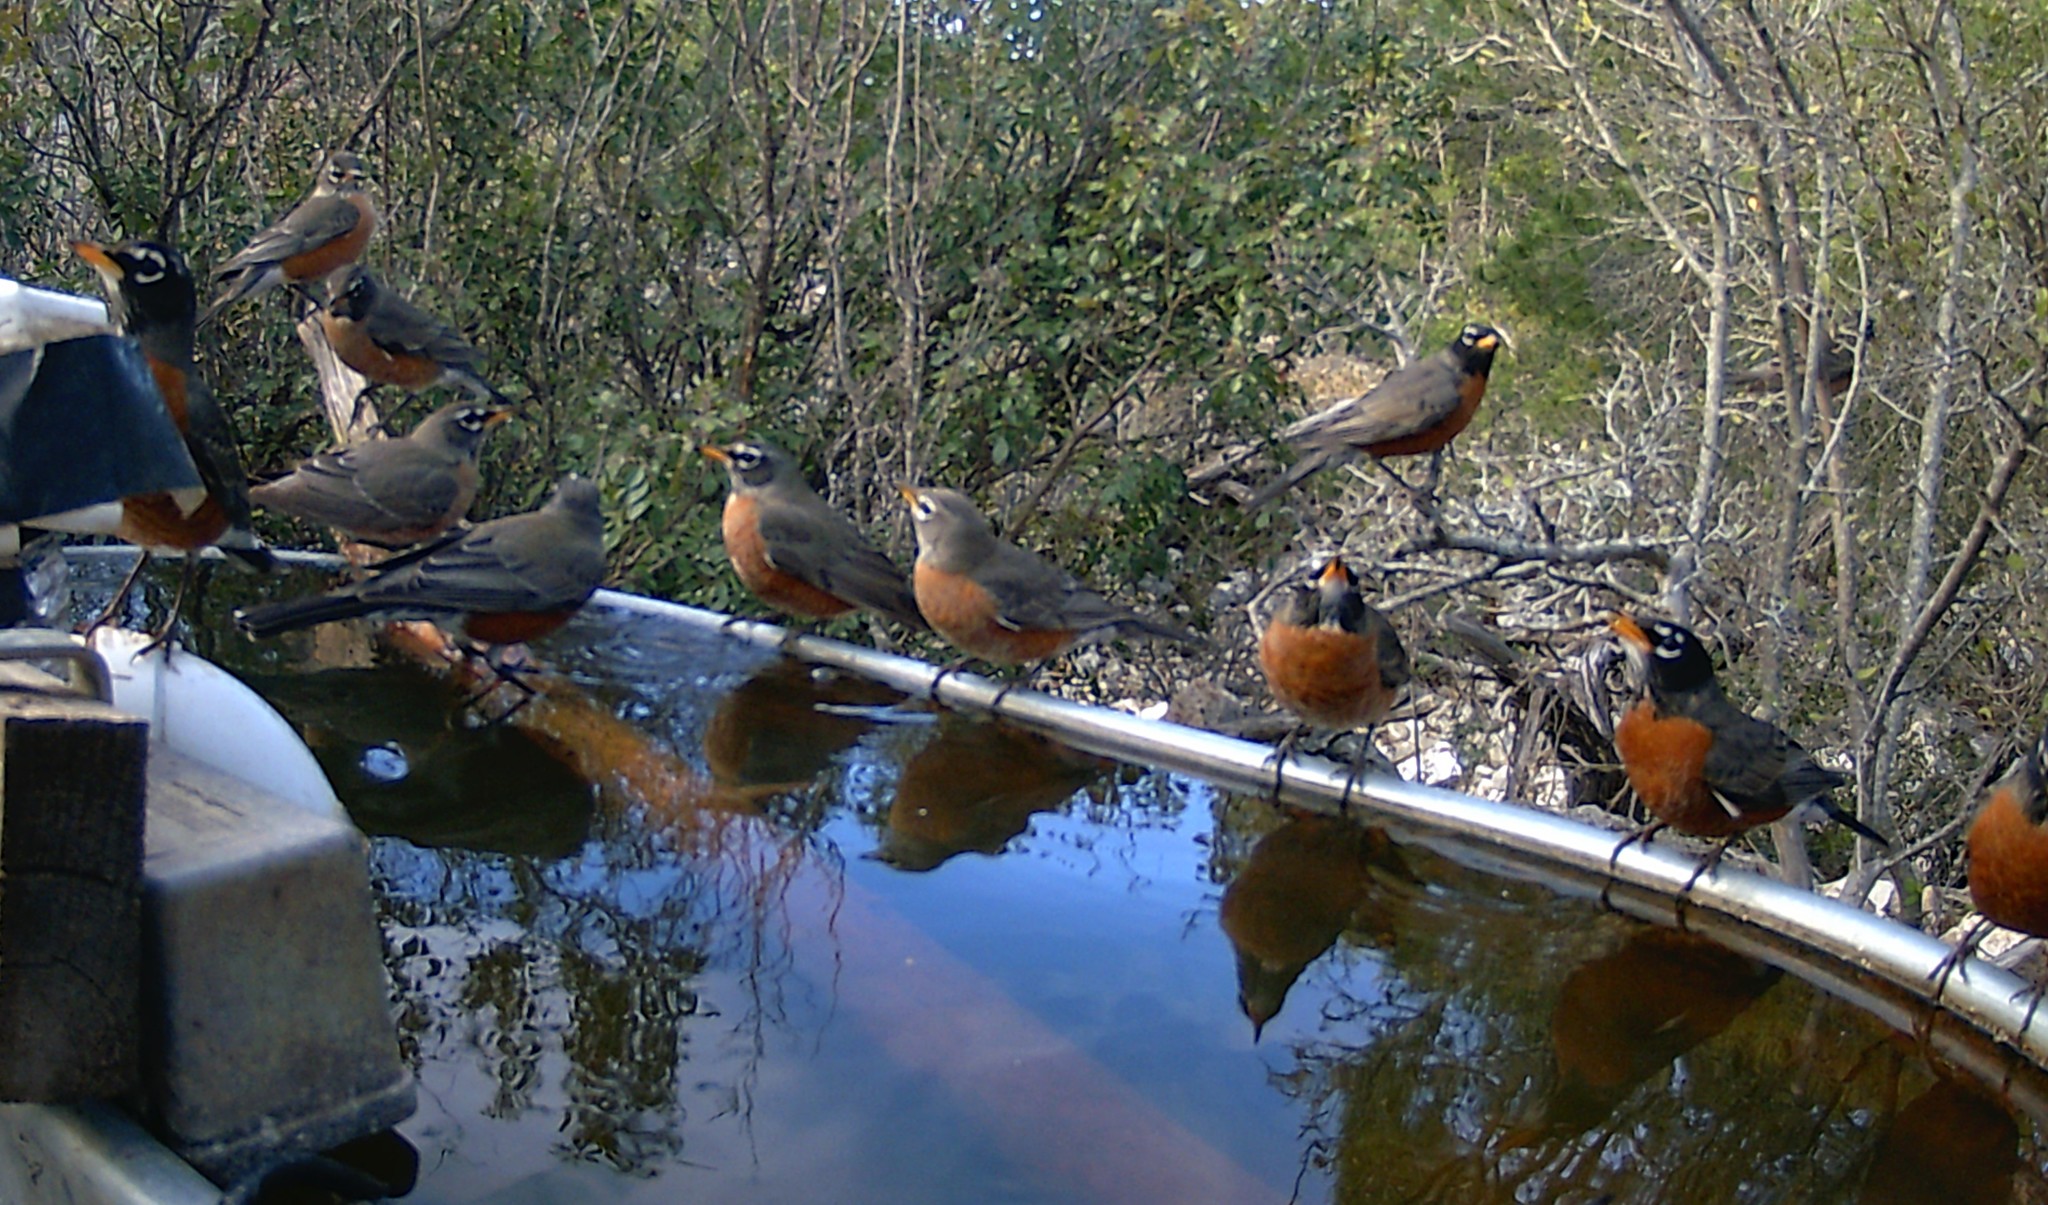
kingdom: Animalia
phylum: Chordata
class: Aves
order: Passeriformes
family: Turdidae
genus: Turdus
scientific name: Turdus migratorius
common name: American robin
